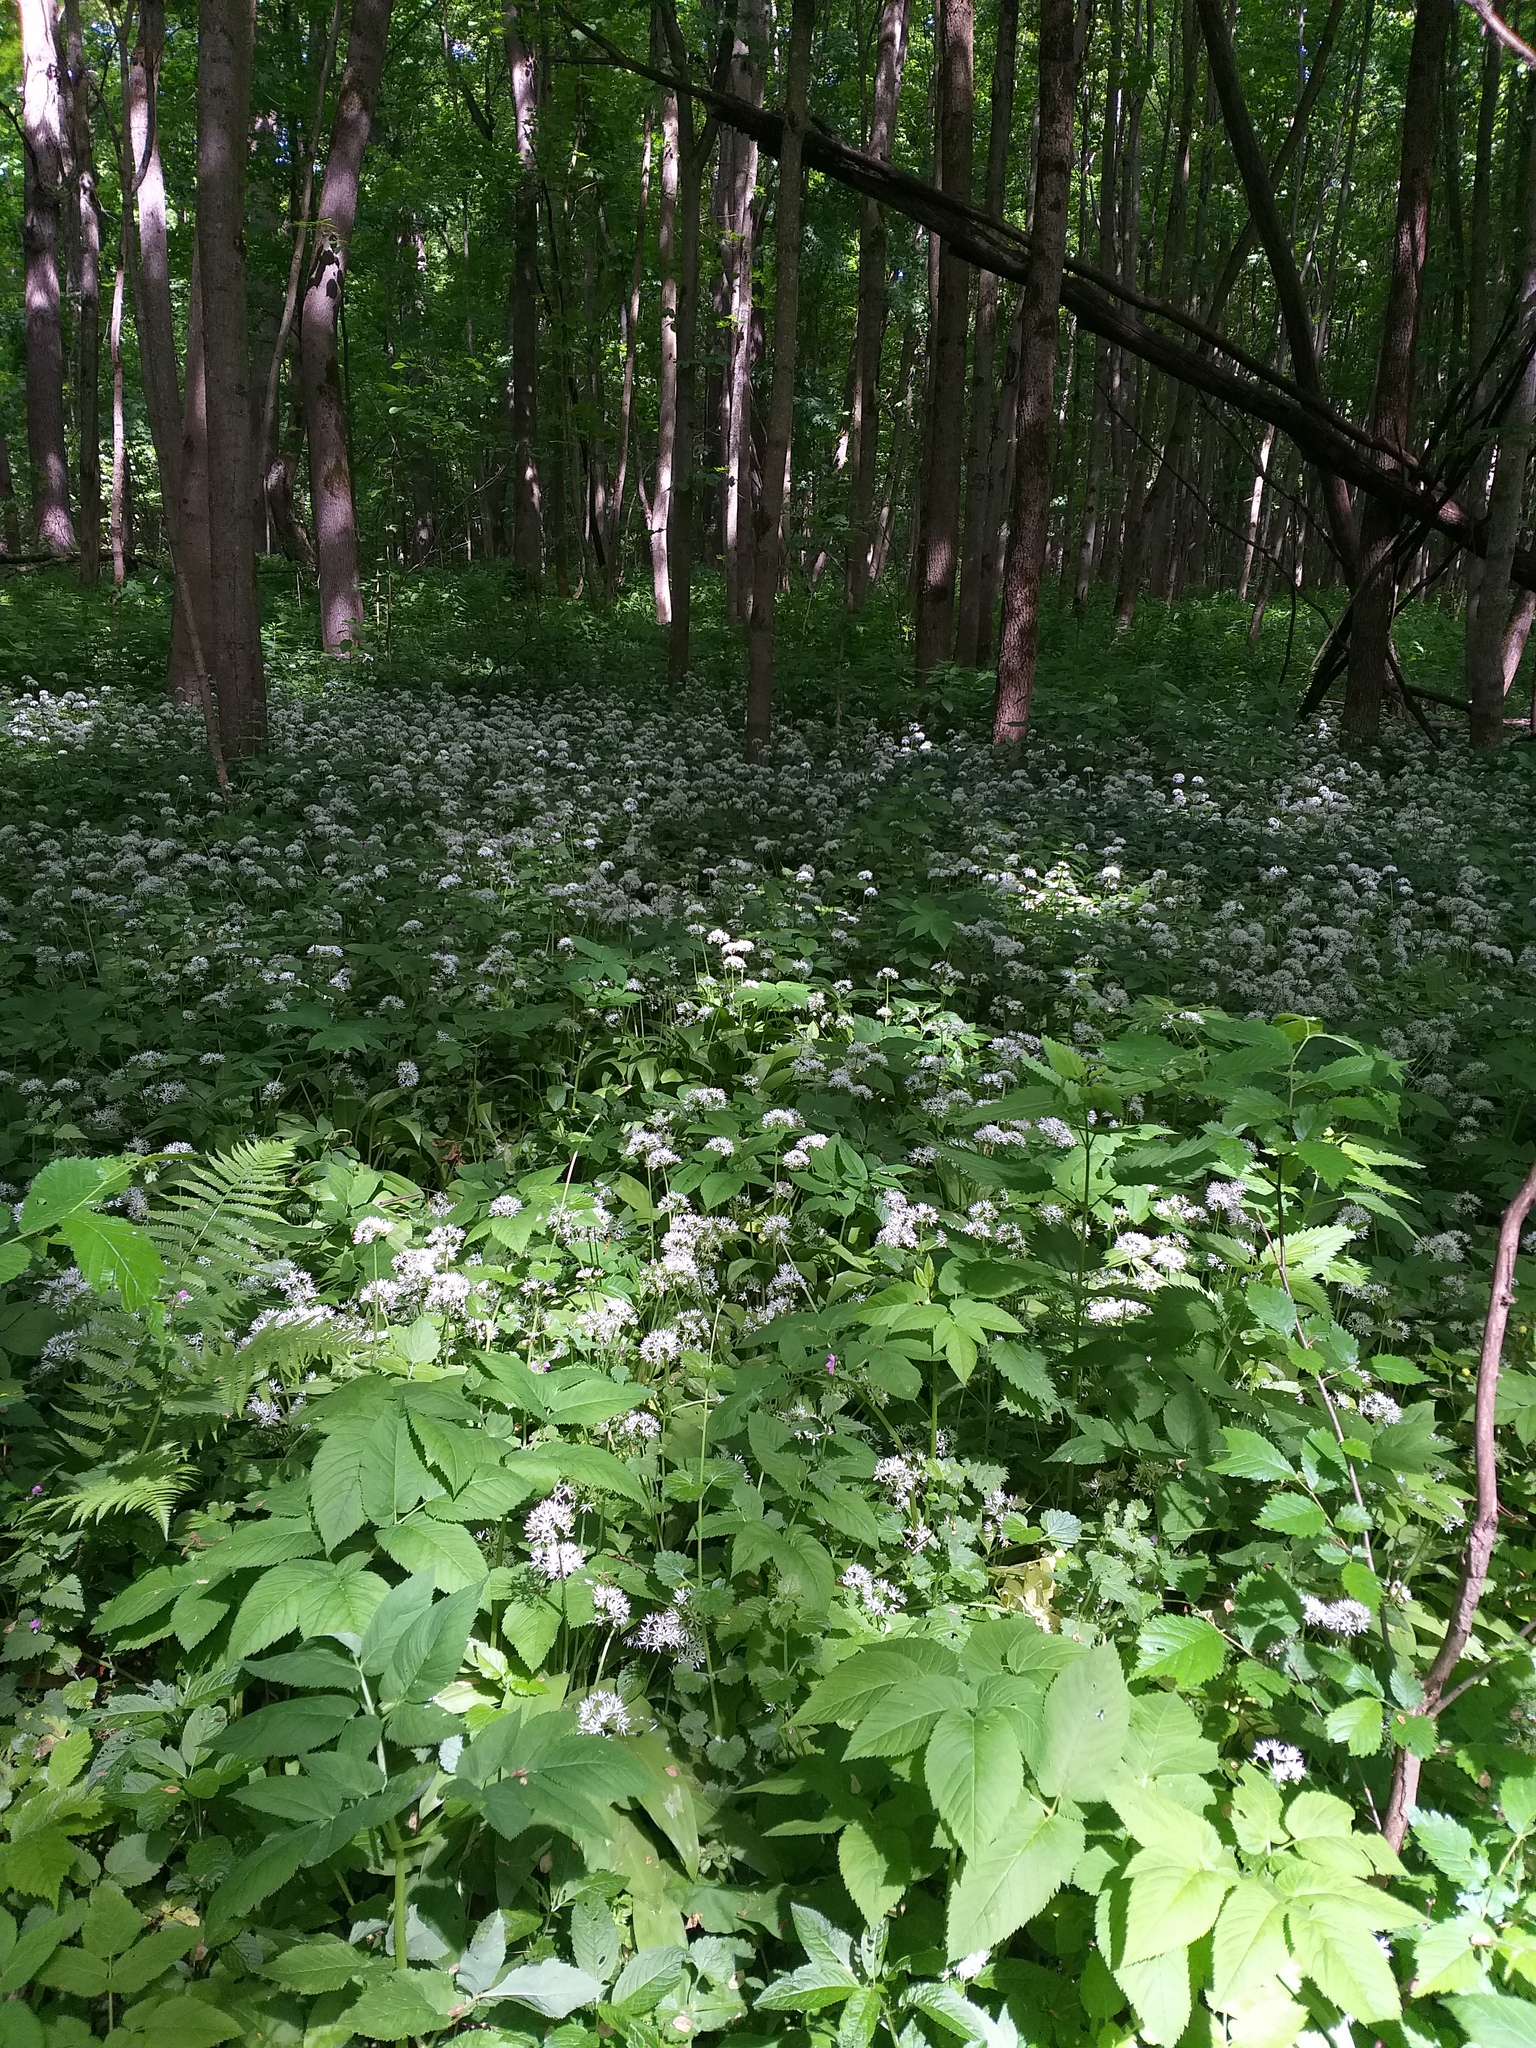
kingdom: Plantae
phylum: Tracheophyta
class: Liliopsida
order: Asparagales
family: Amaryllidaceae
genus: Allium
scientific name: Allium ursinum
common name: Ramsons
